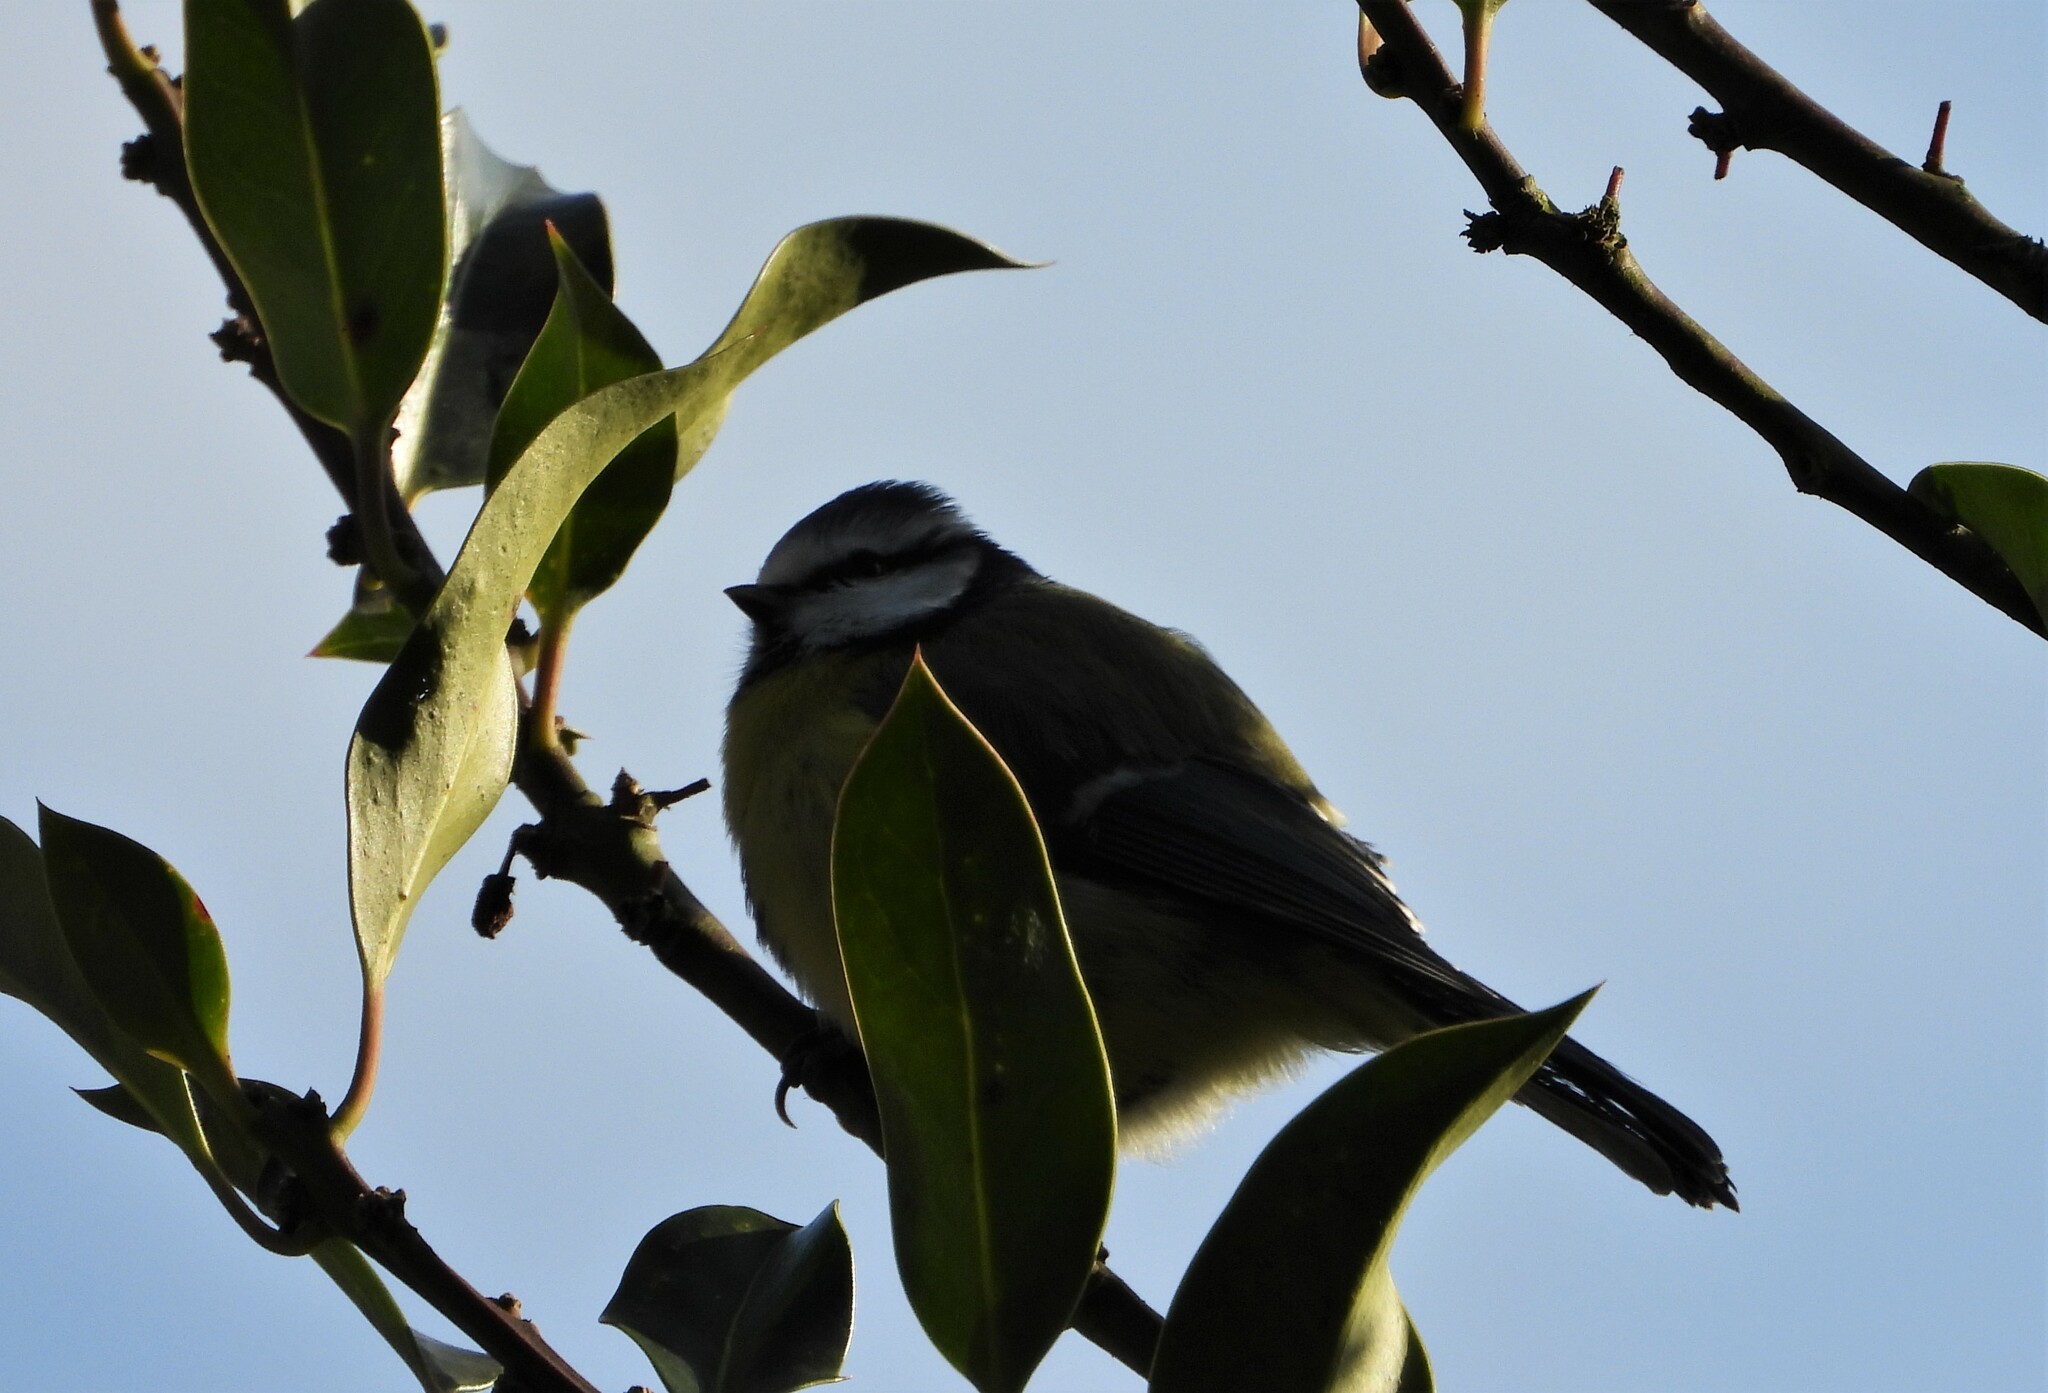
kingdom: Animalia
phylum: Chordata
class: Aves
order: Passeriformes
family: Paridae
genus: Cyanistes
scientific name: Cyanistes caeruleus
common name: Eurasian blue tit
